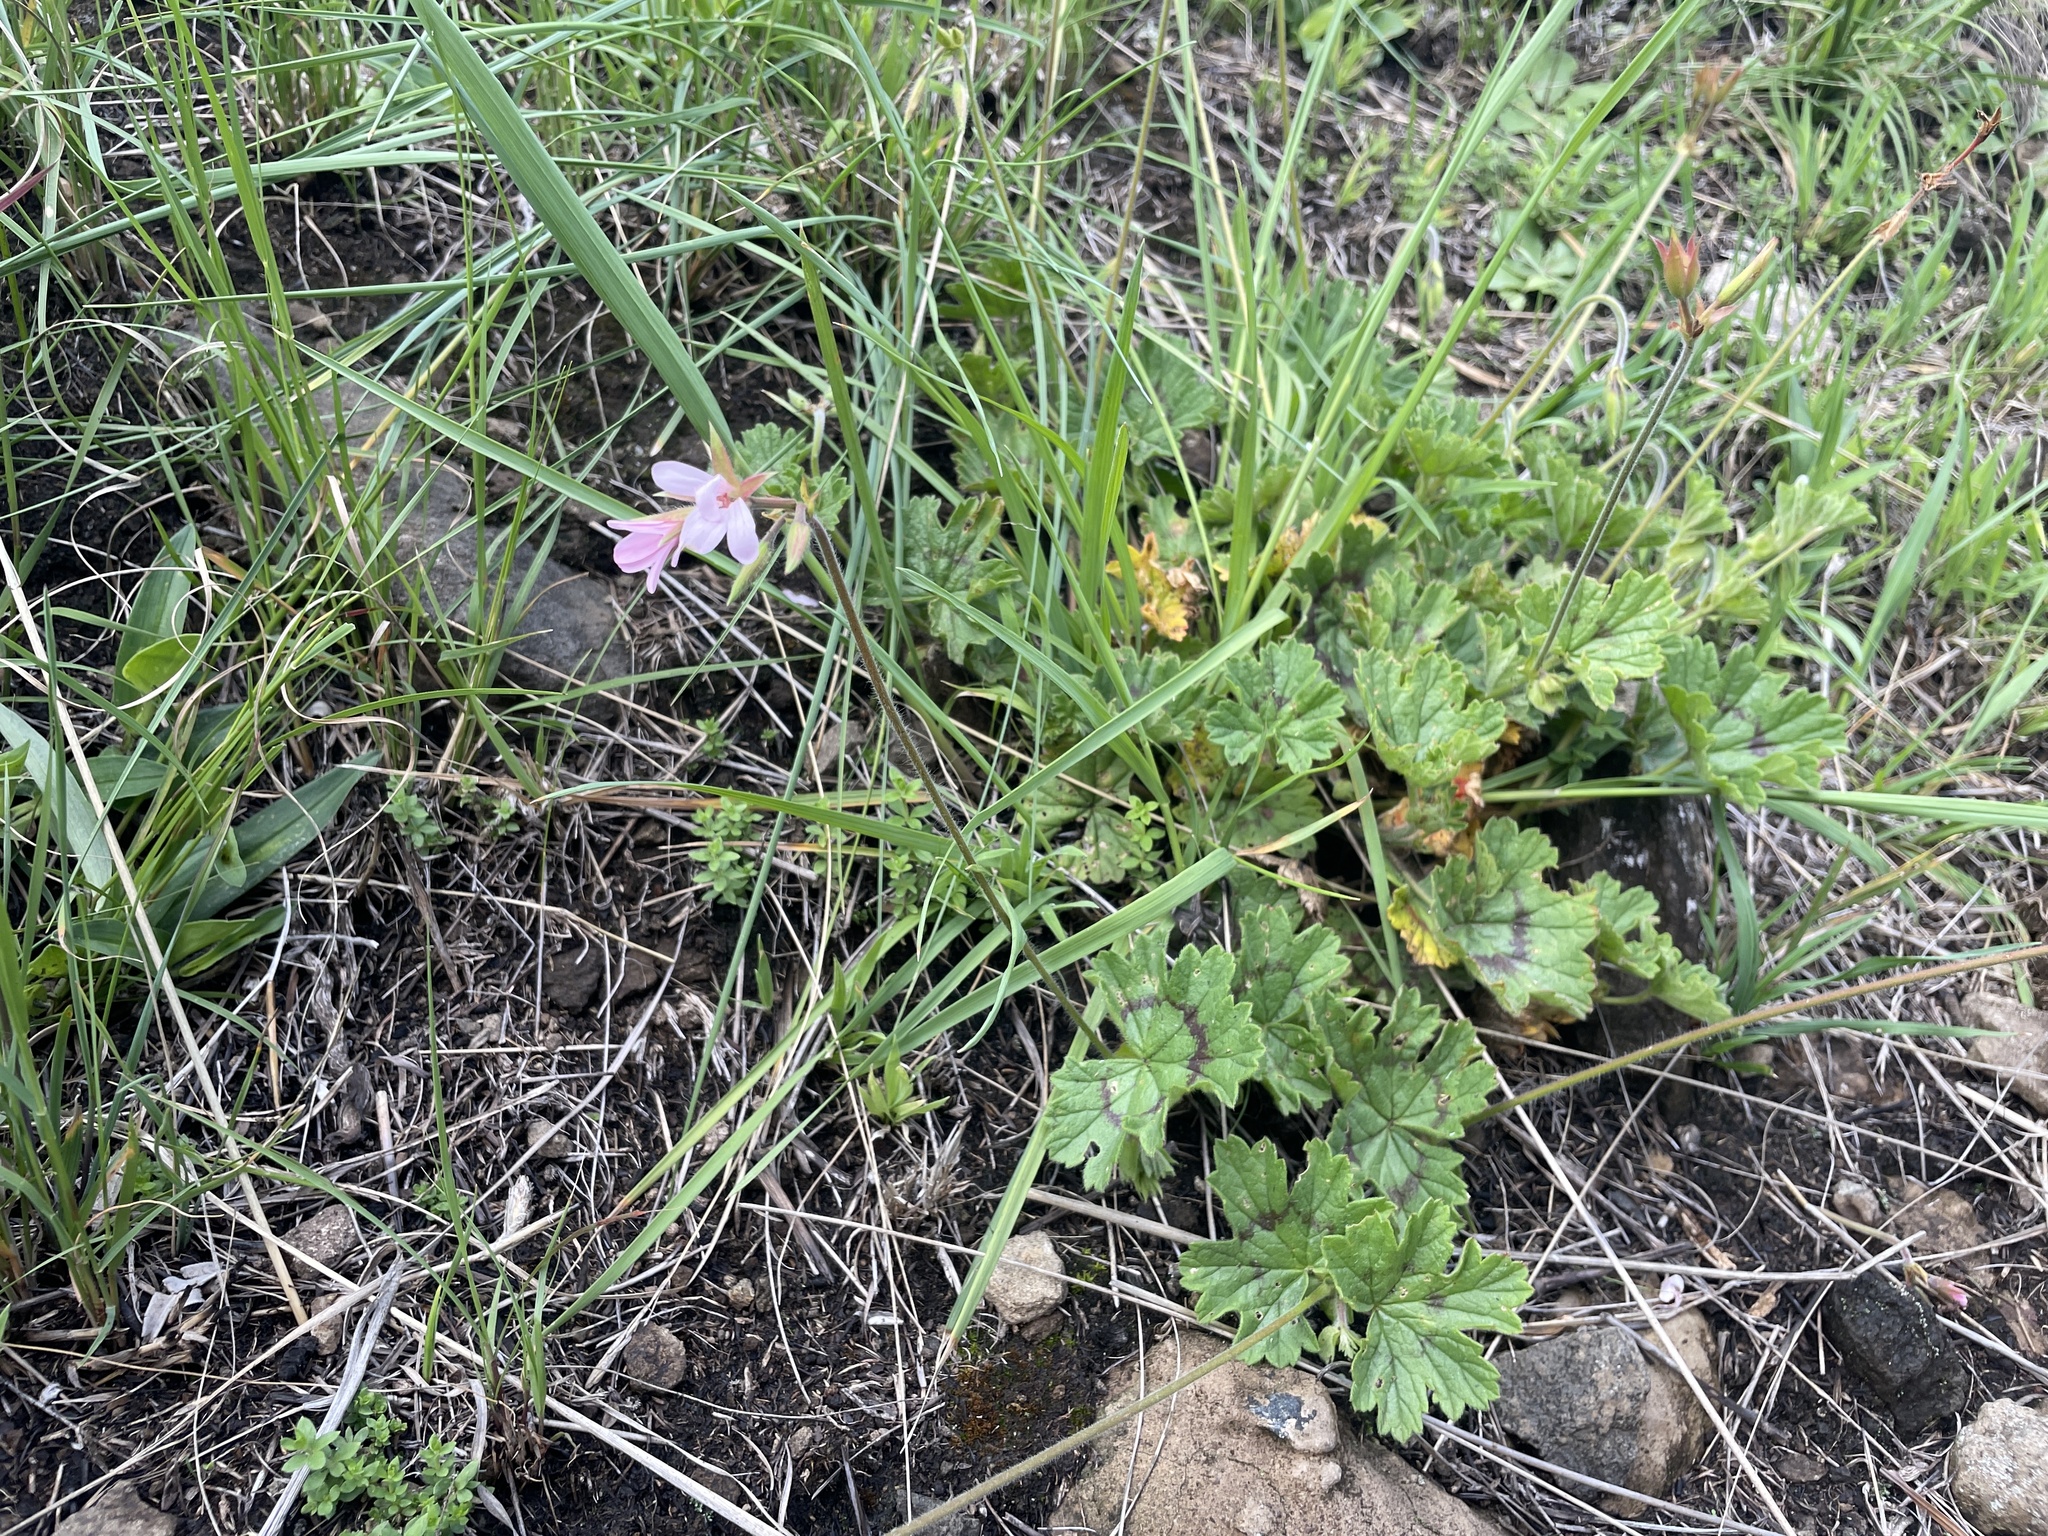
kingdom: Plantae
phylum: Tracheophyta
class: Magnoliopsida
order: Geraniales
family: Geraniaceae
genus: Pelargonium
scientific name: Pelargonium alchemilloides
